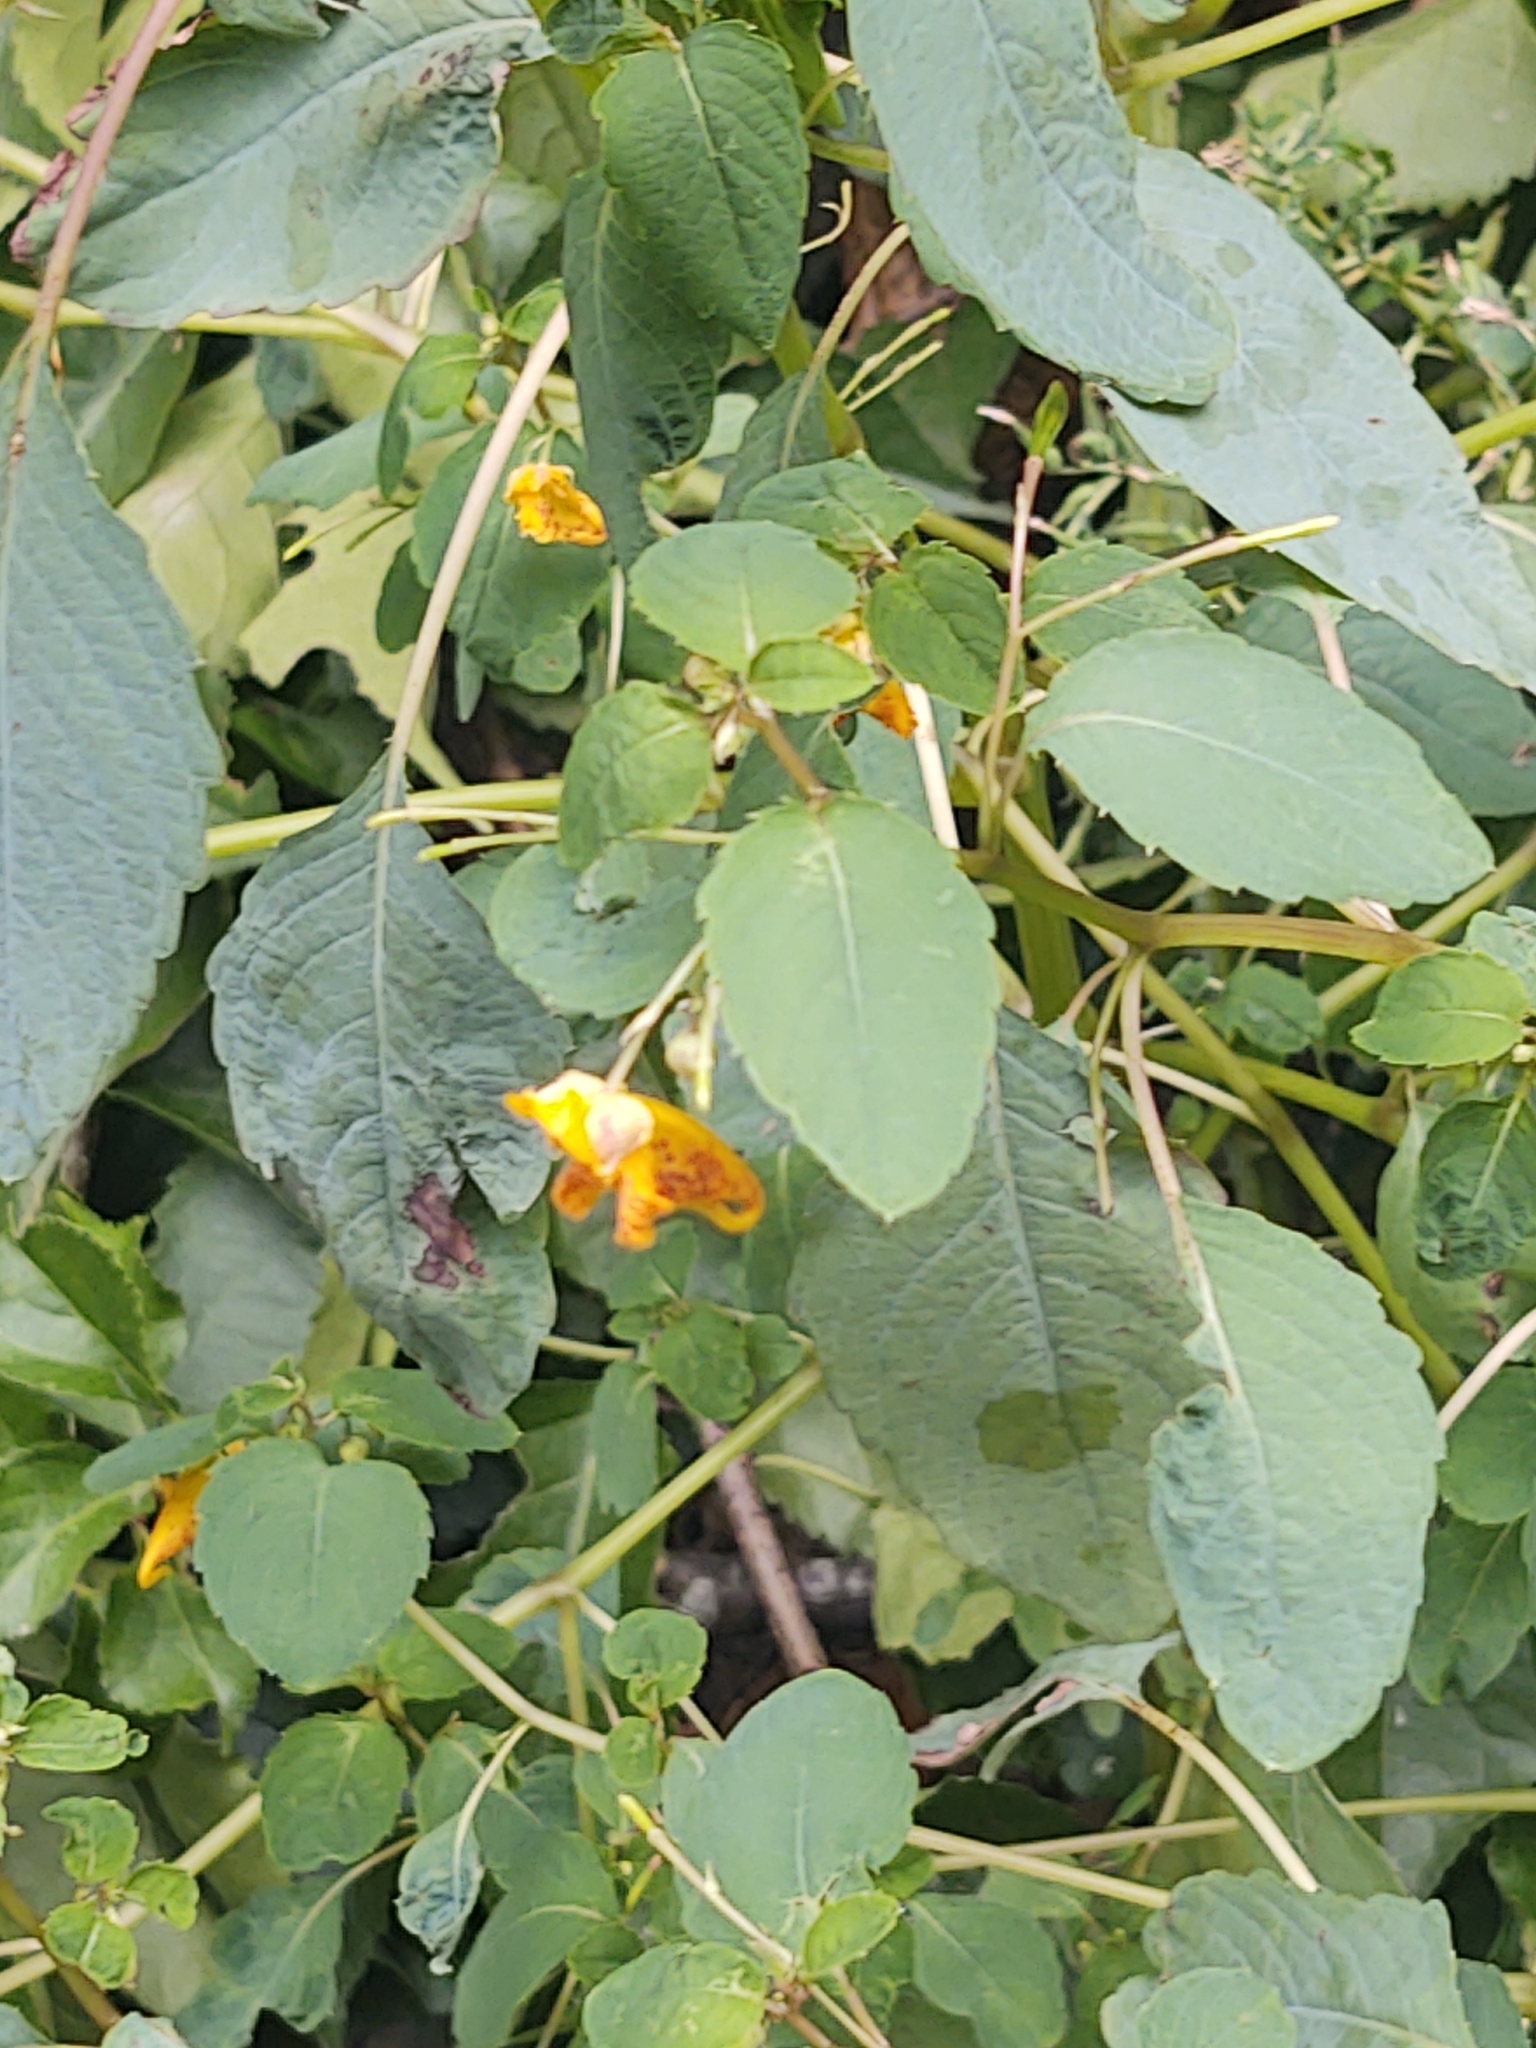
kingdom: Plantae
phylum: Tracheophyta
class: Magnoliopsida
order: Ericales
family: Balsaminaceae
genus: Impatiens
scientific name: Impatiens capensis
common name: Orange balsam
